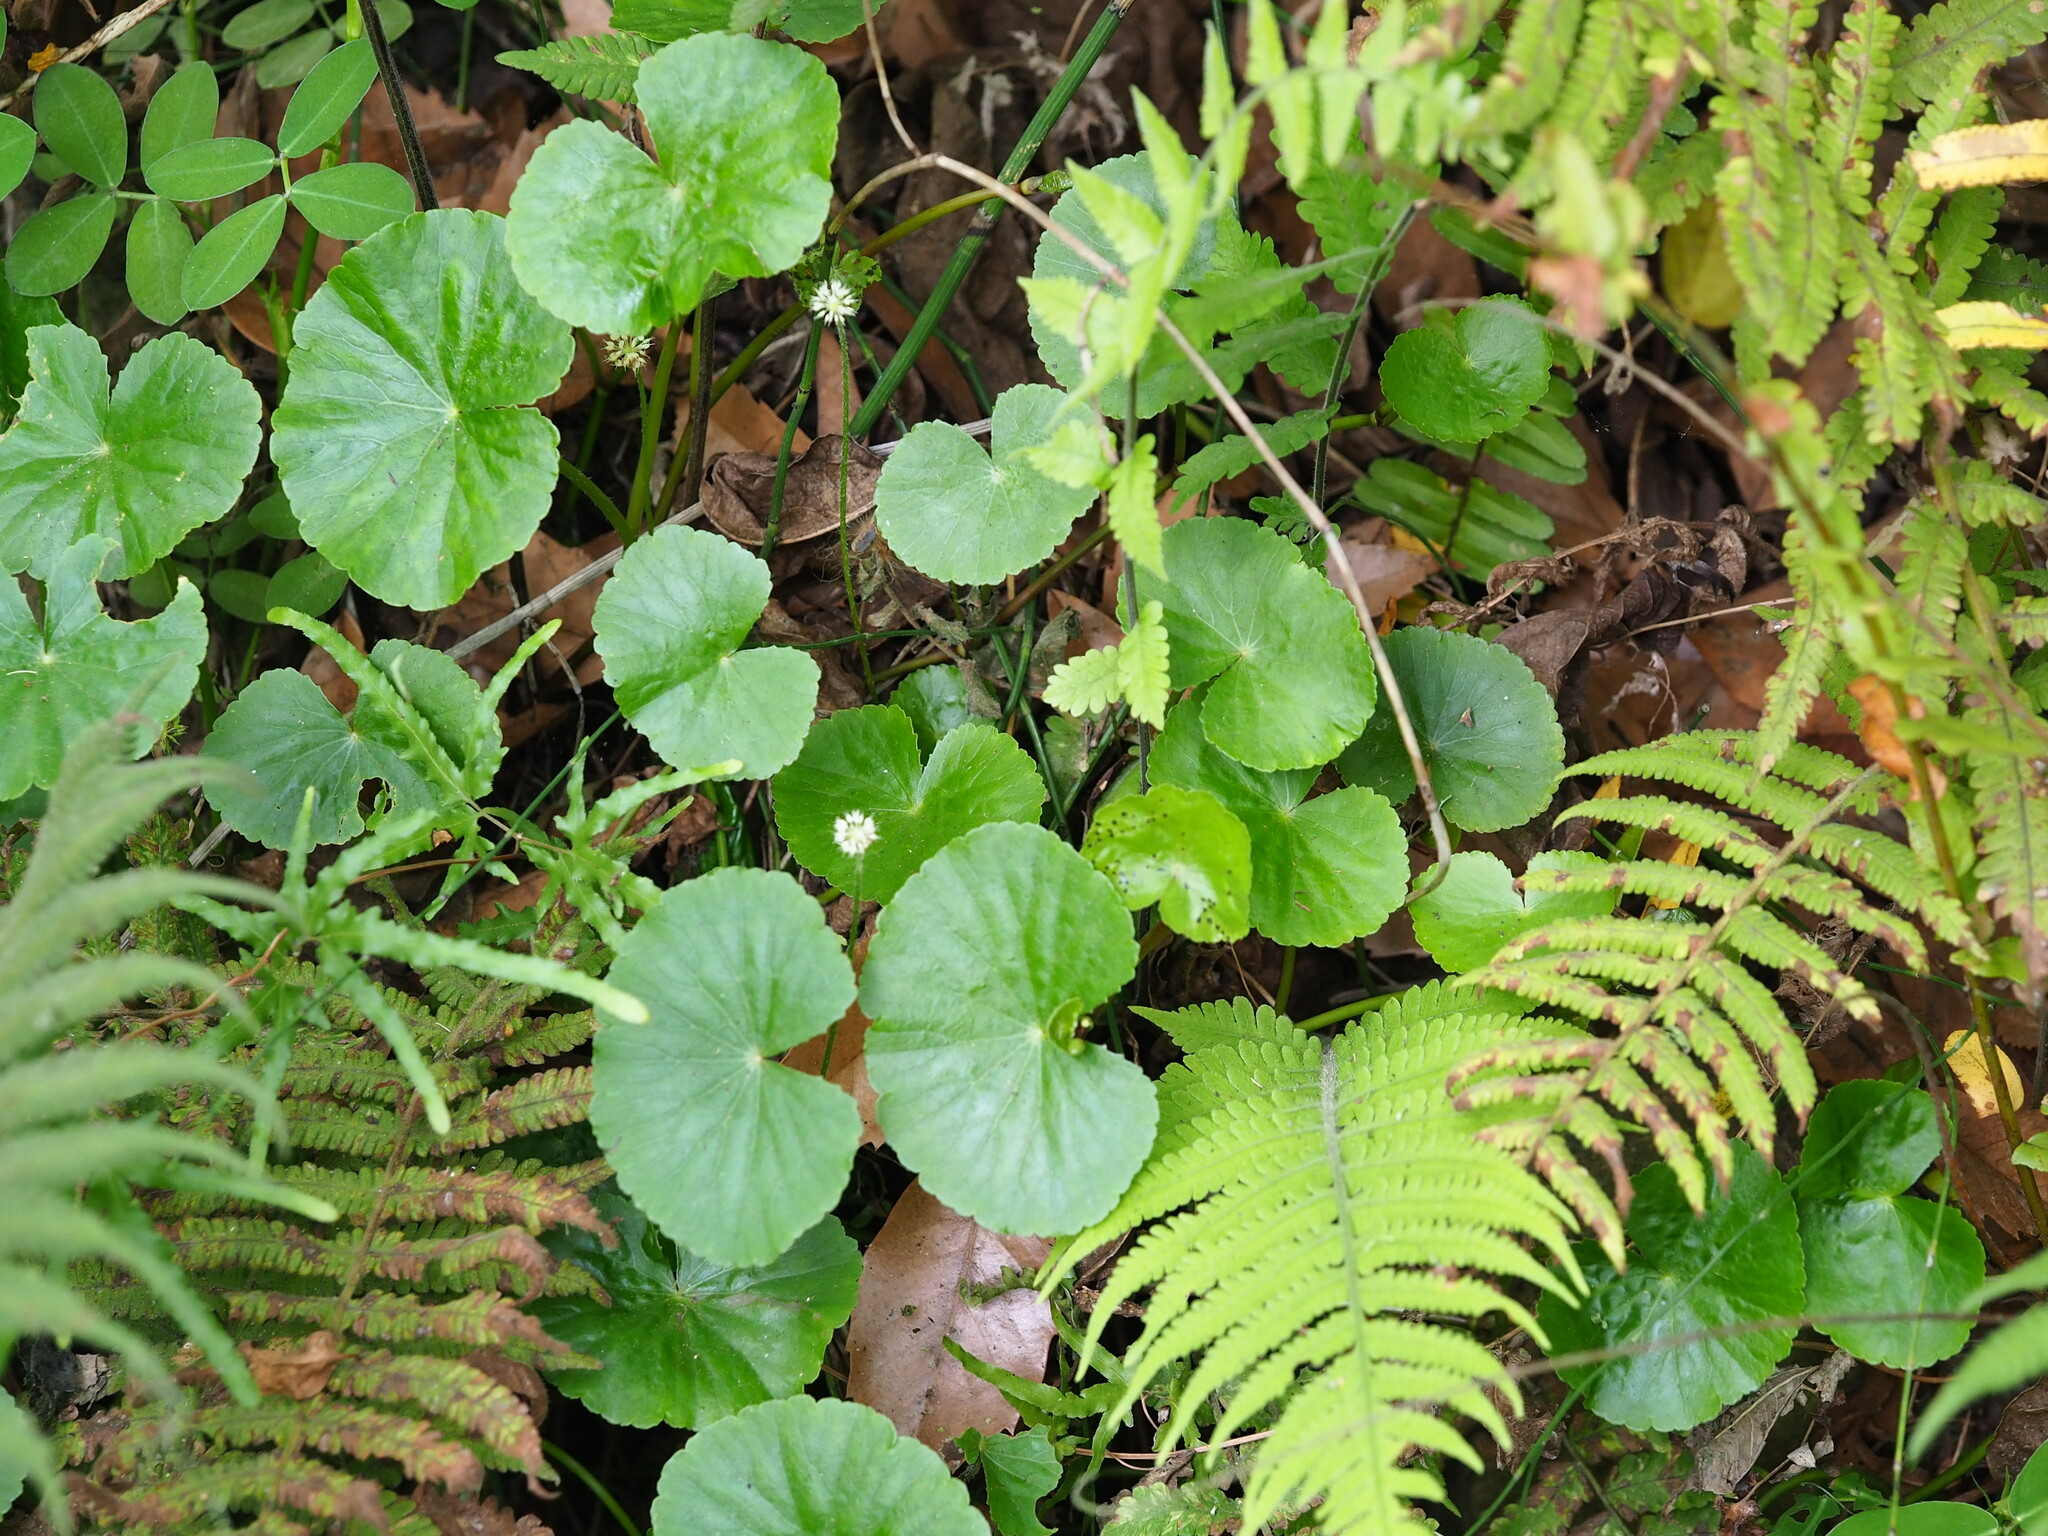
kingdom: Plantae
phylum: Tracheophyta
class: Magnoliopsida
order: Apiales
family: Araliaceae
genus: Hydrocotyle
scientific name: Hydrocotyle leucocephala
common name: Brazilian pennywort
